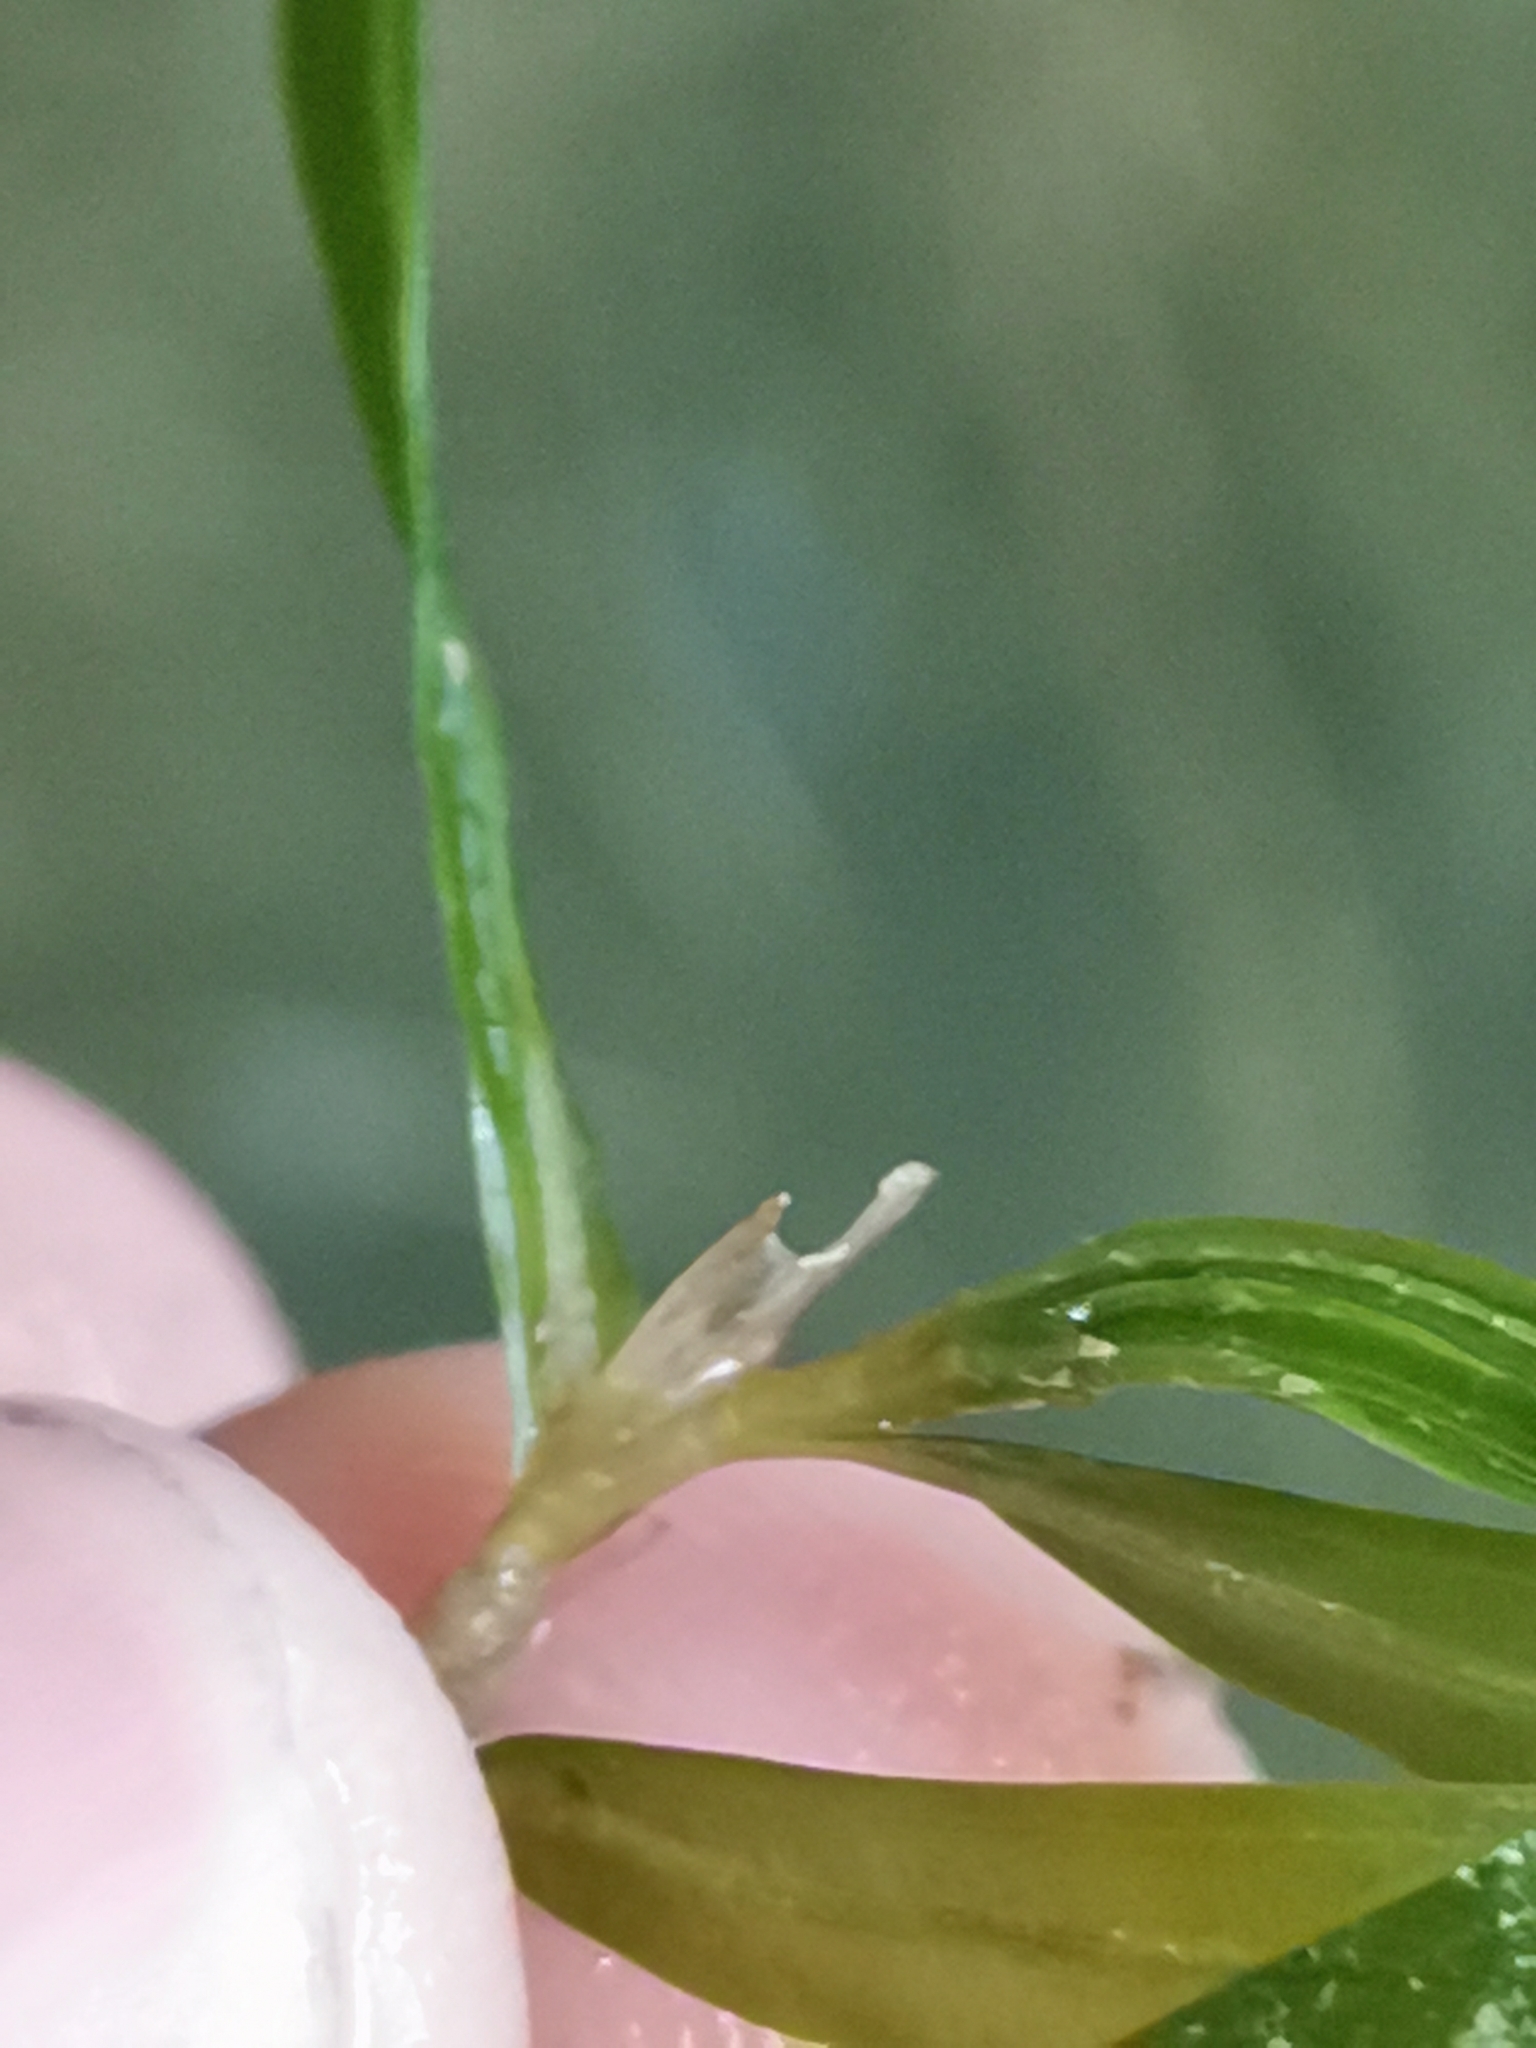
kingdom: Plantae
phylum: Tracheophyta
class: Liliopsida
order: Alismatales
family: Potamogetonaceae
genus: Potamogeton
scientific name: Potamogeton crispus
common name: Curled pondweed
